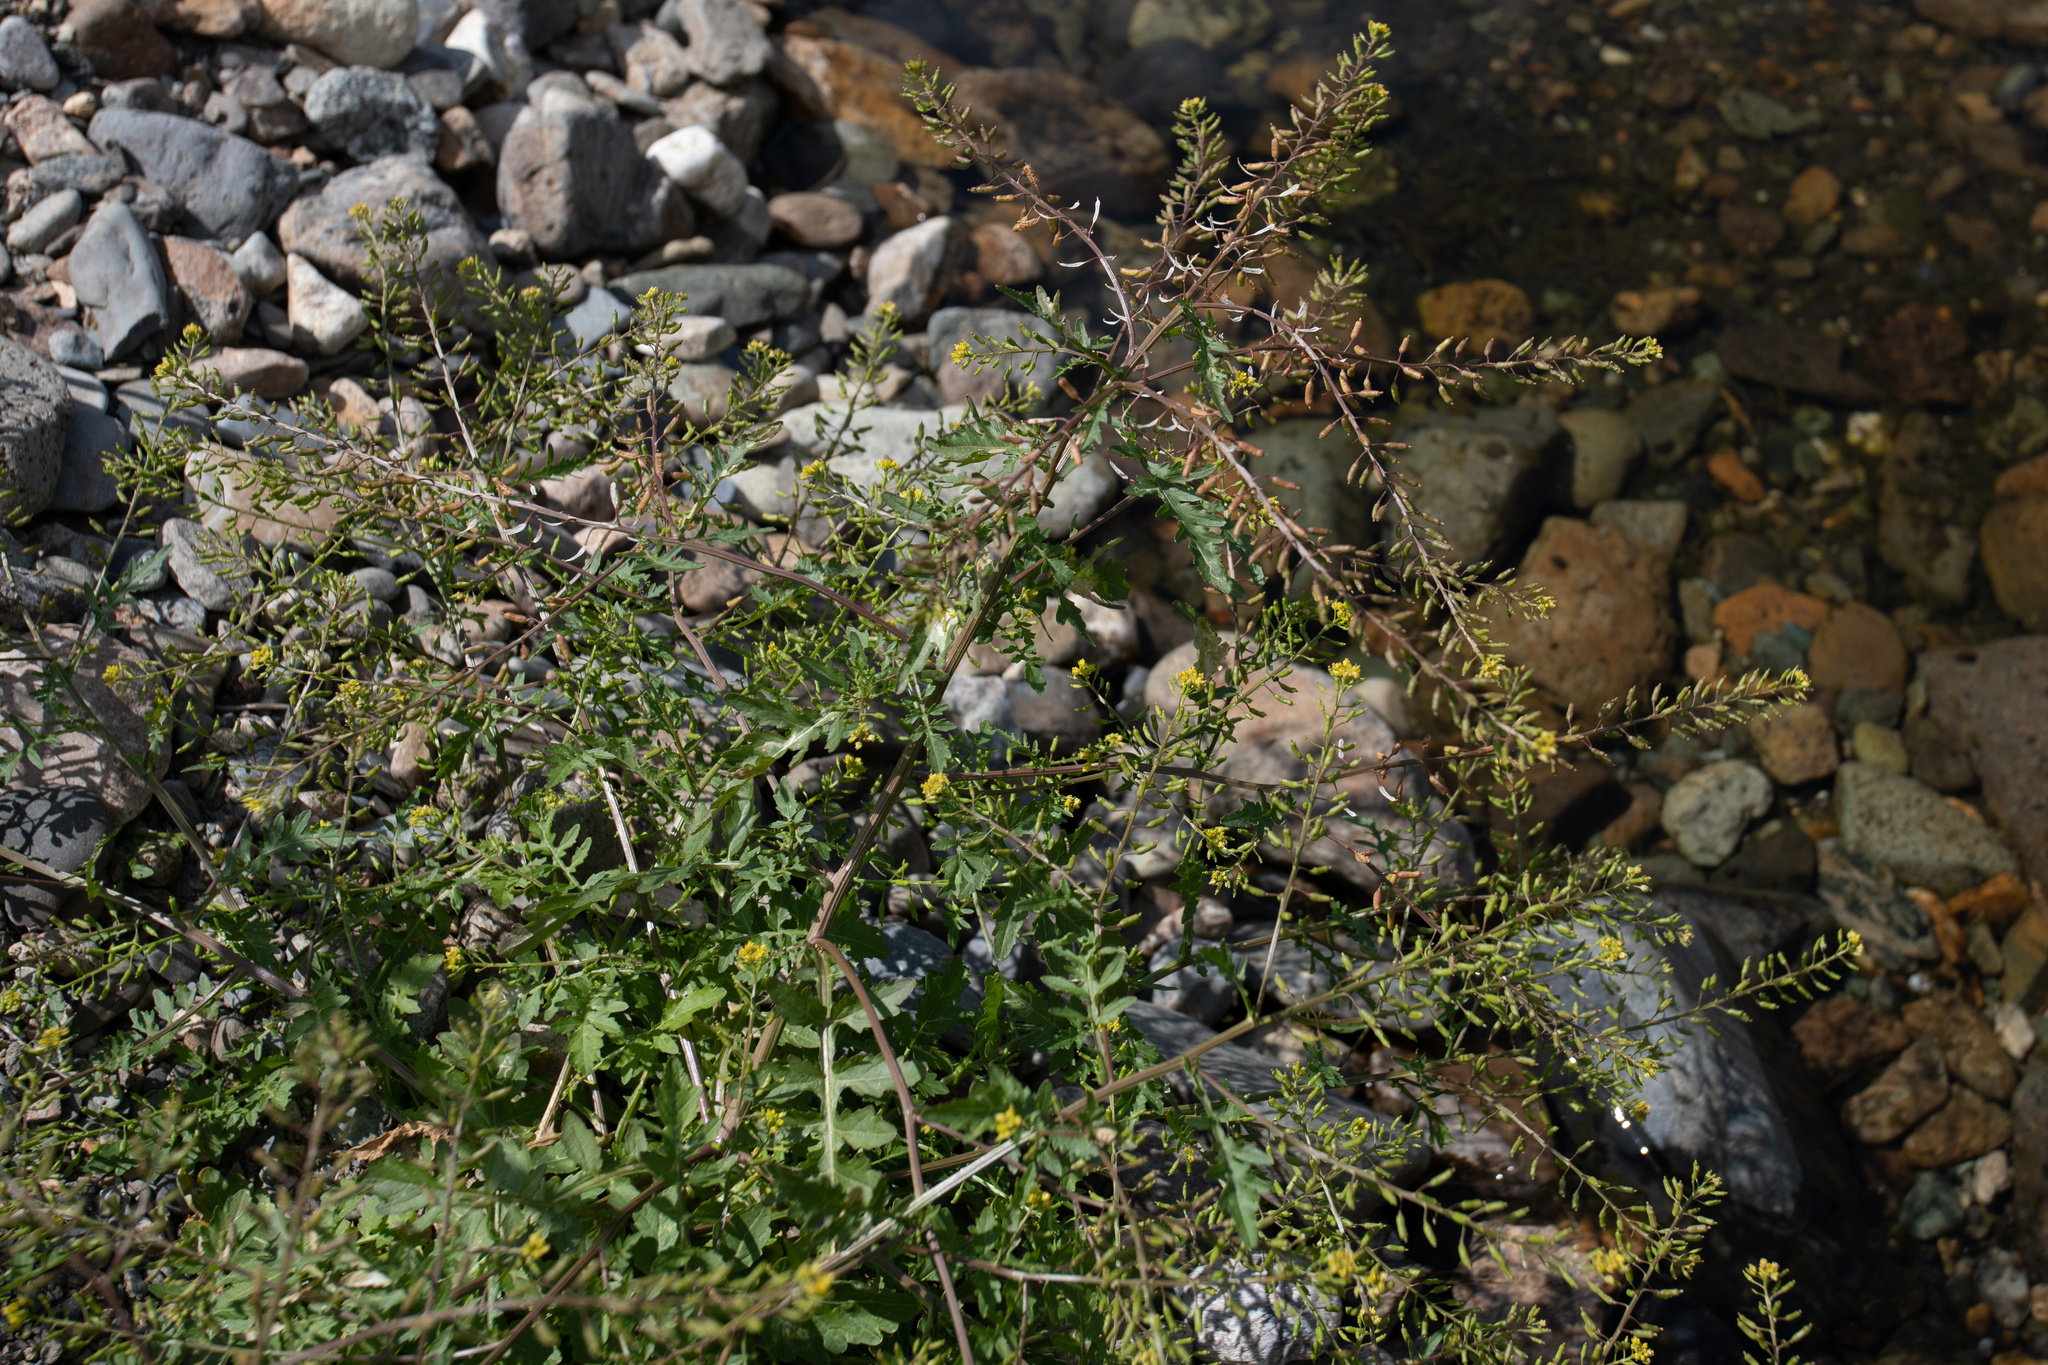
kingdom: Plantae
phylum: Tracheophyta
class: Magnoliopsida
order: Brassicales
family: Brassicaceae
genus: Rorippa
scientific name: Rorippa palustris
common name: Marsh yellow-cress
